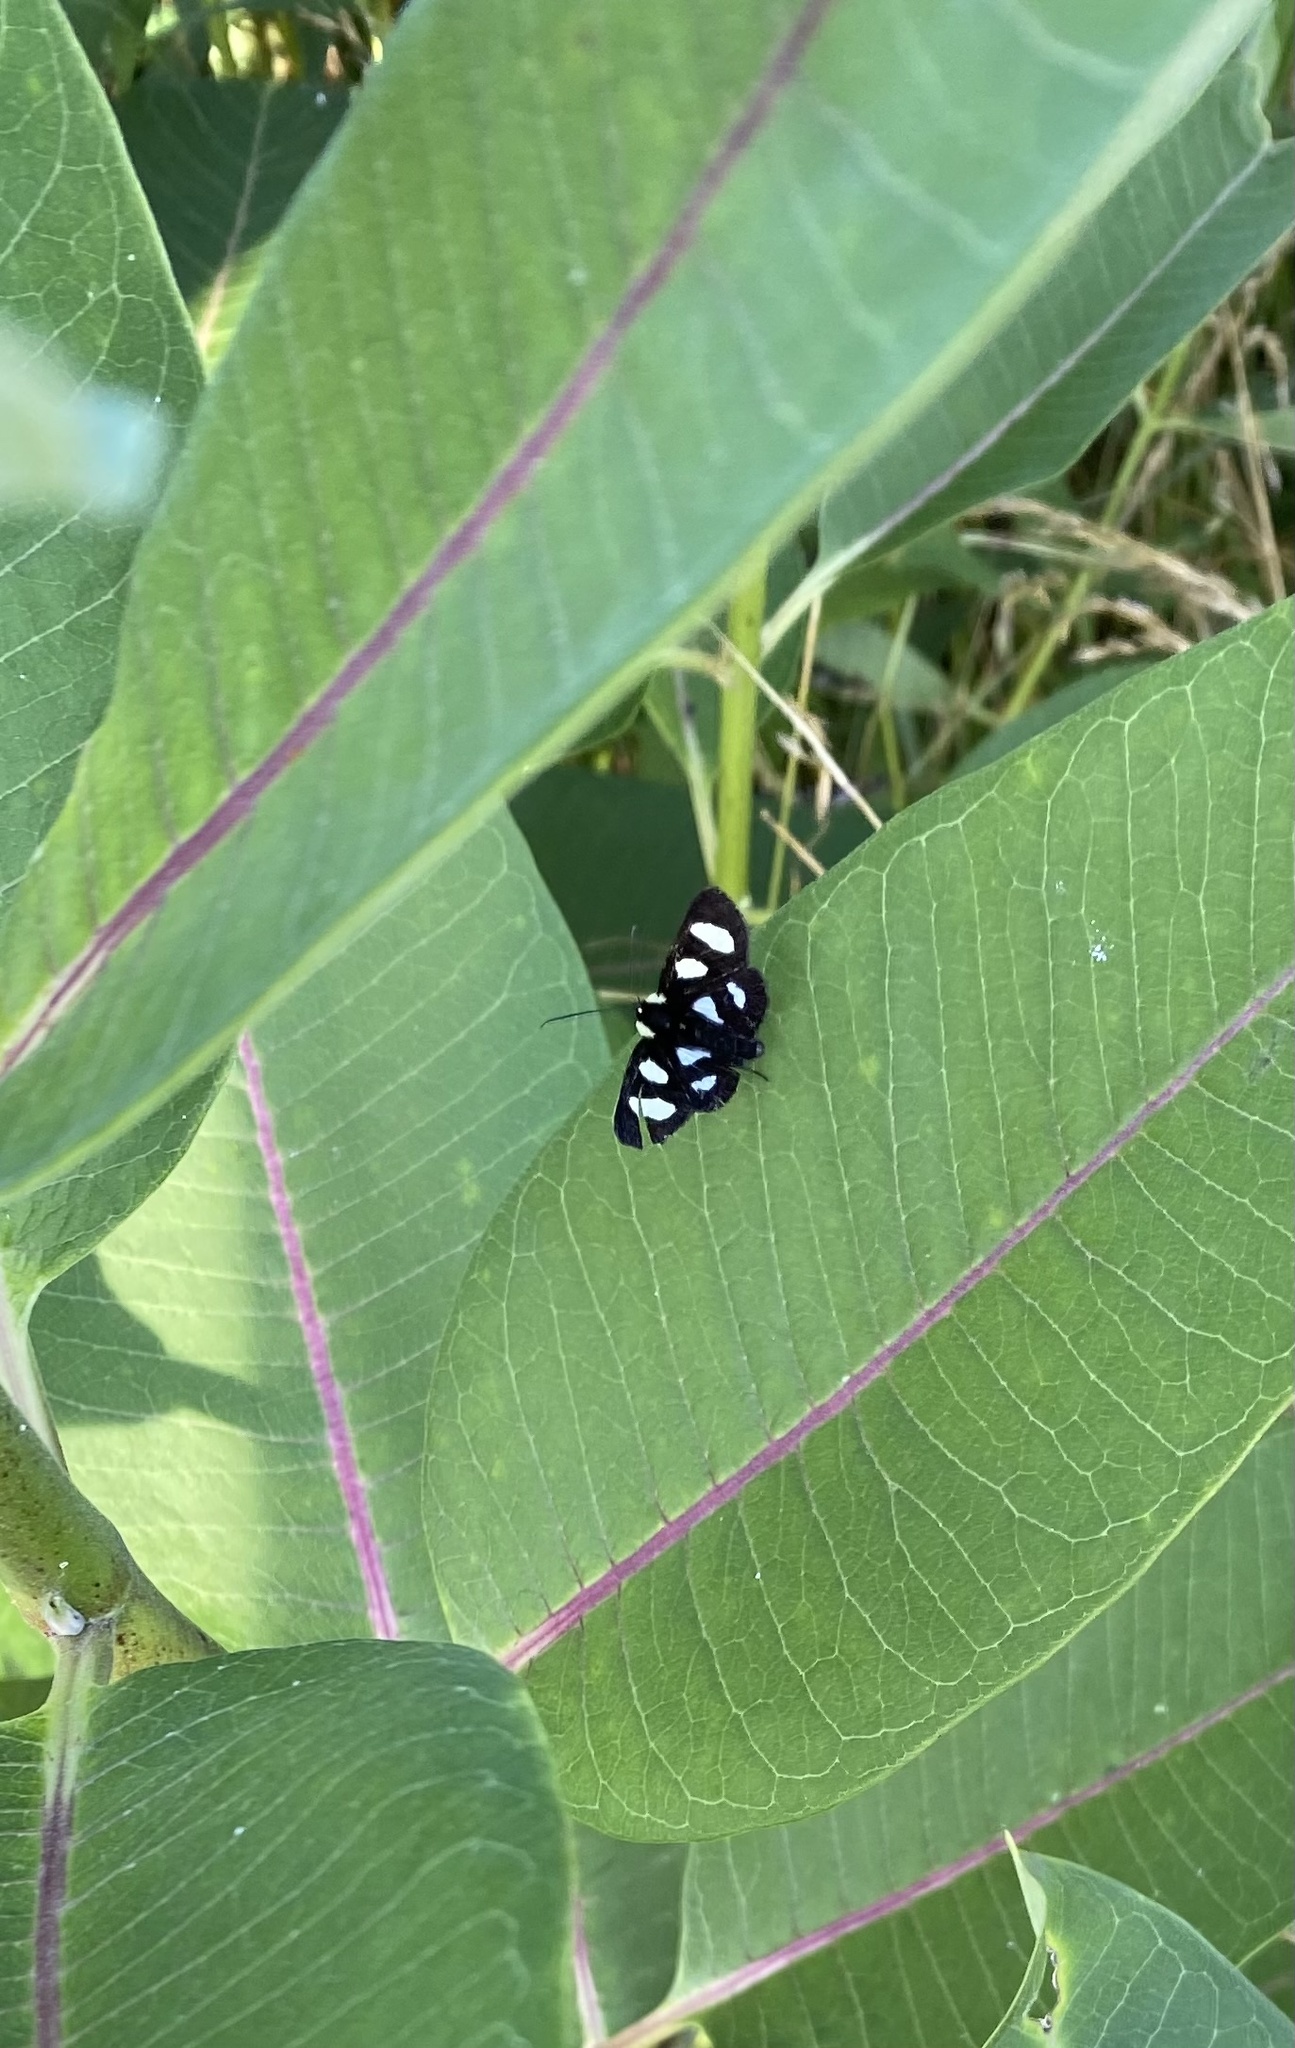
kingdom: Animalia
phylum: Arthropoda
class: Insecta
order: Lepidoptera
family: Noctuidae
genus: Alypia
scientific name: Alypia octomaculata
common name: Eight-spotted forester
